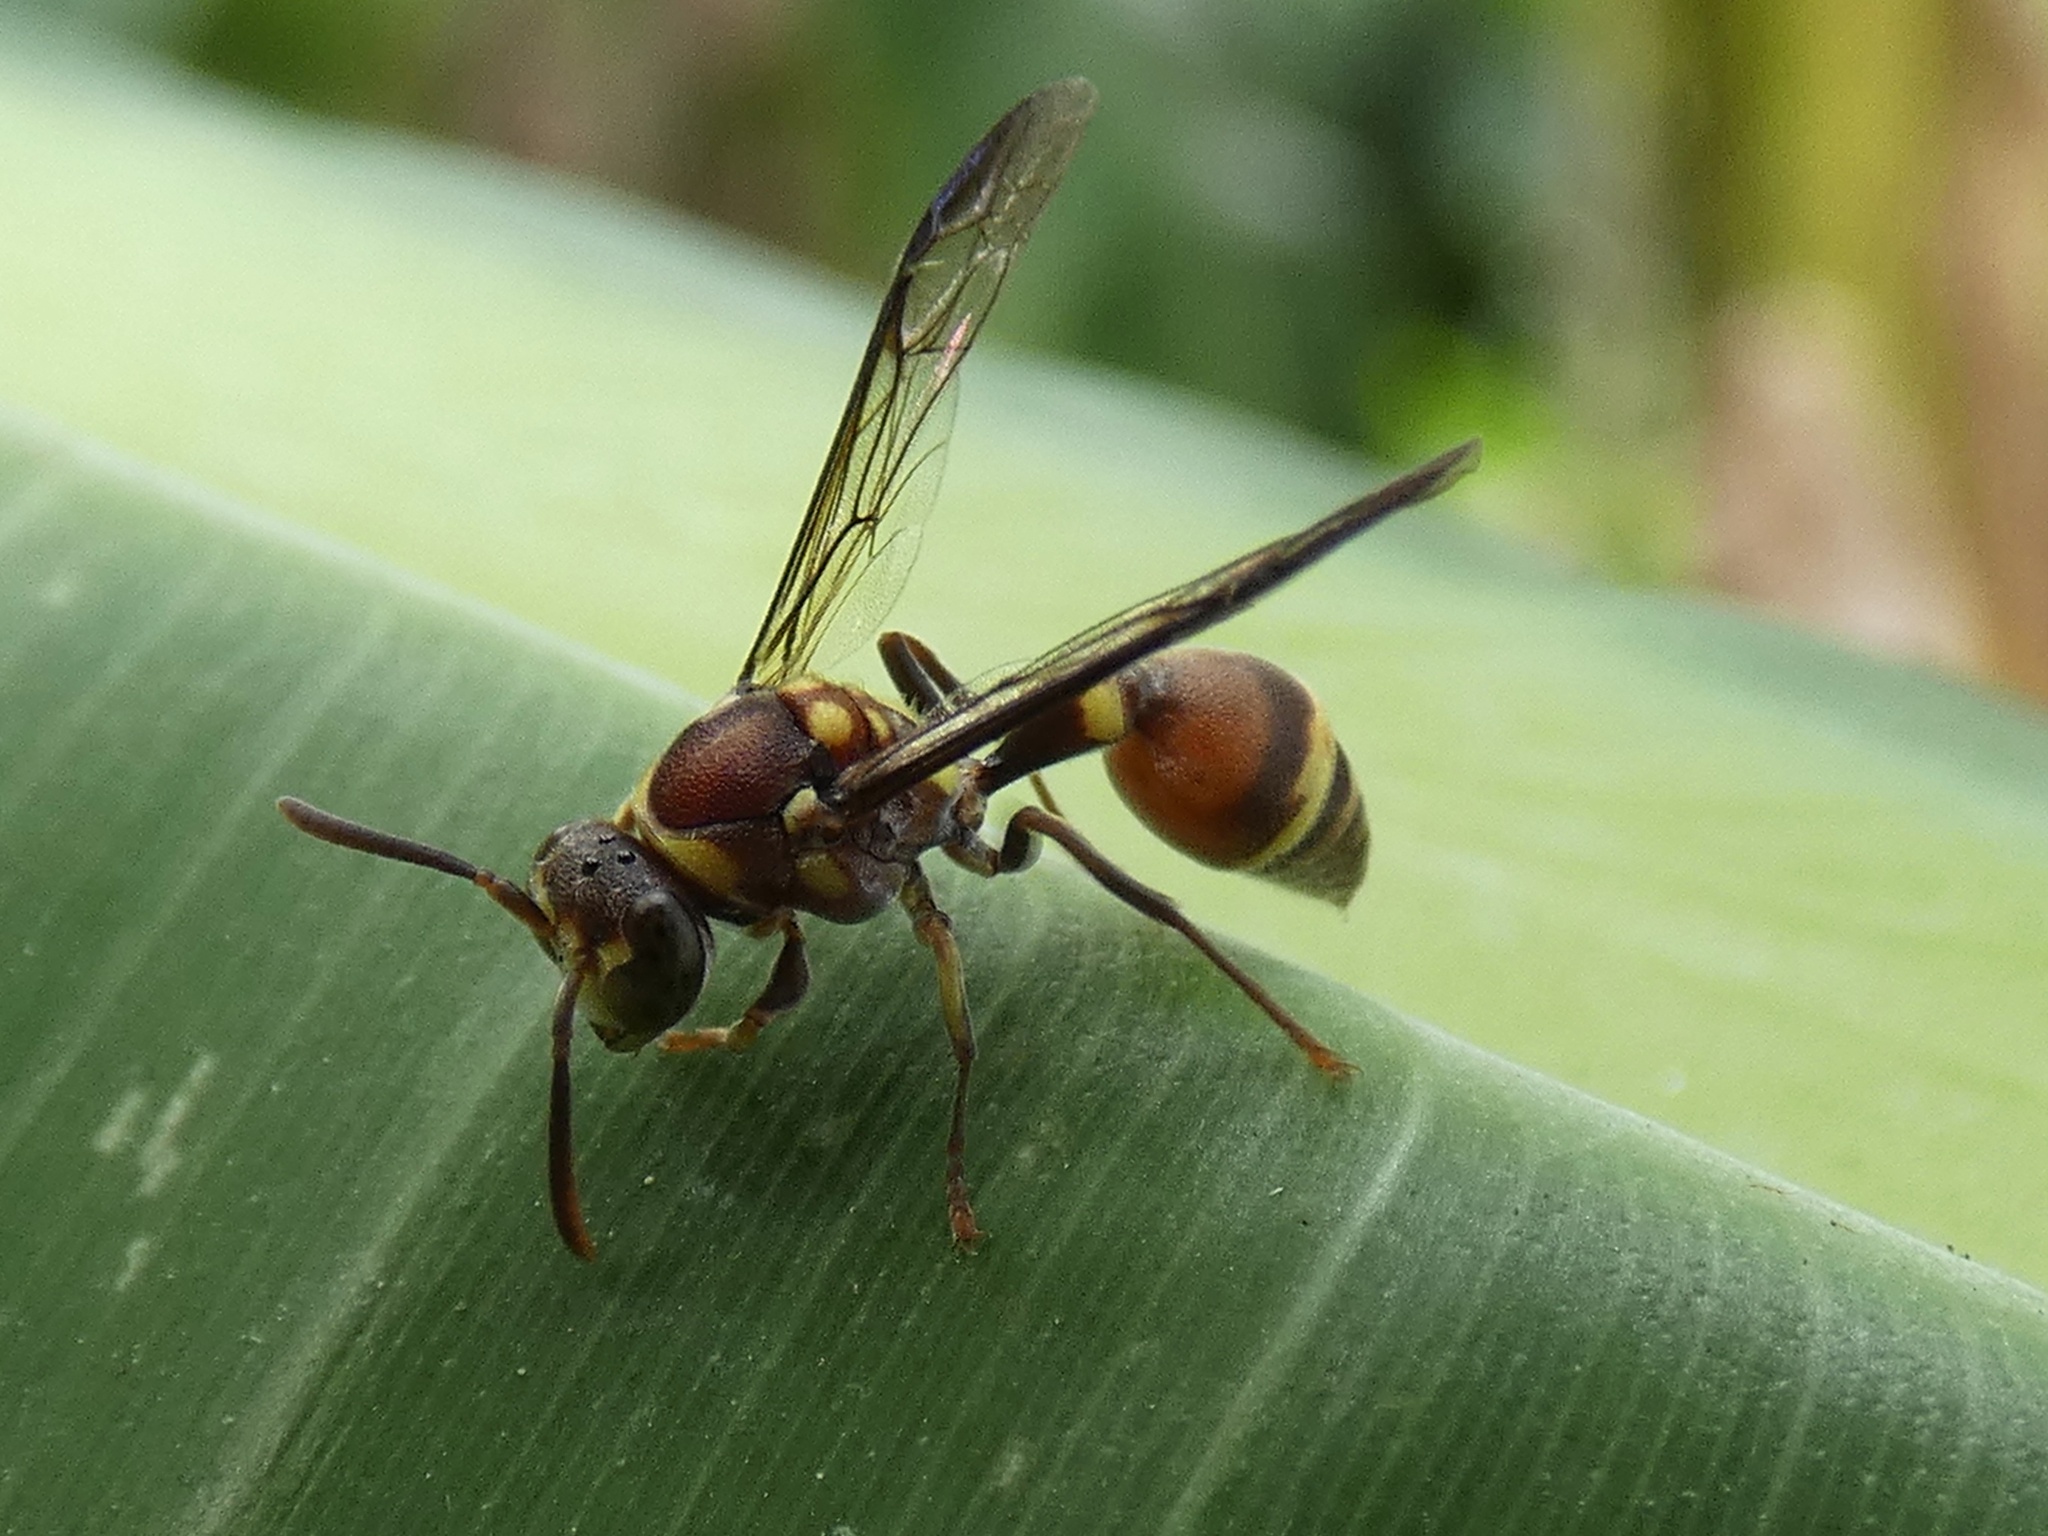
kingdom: Animalia
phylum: Arthropoda
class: Insecta
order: Hymenoptera
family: Vespidae
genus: Ropalidia
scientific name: Ropalidia horni
